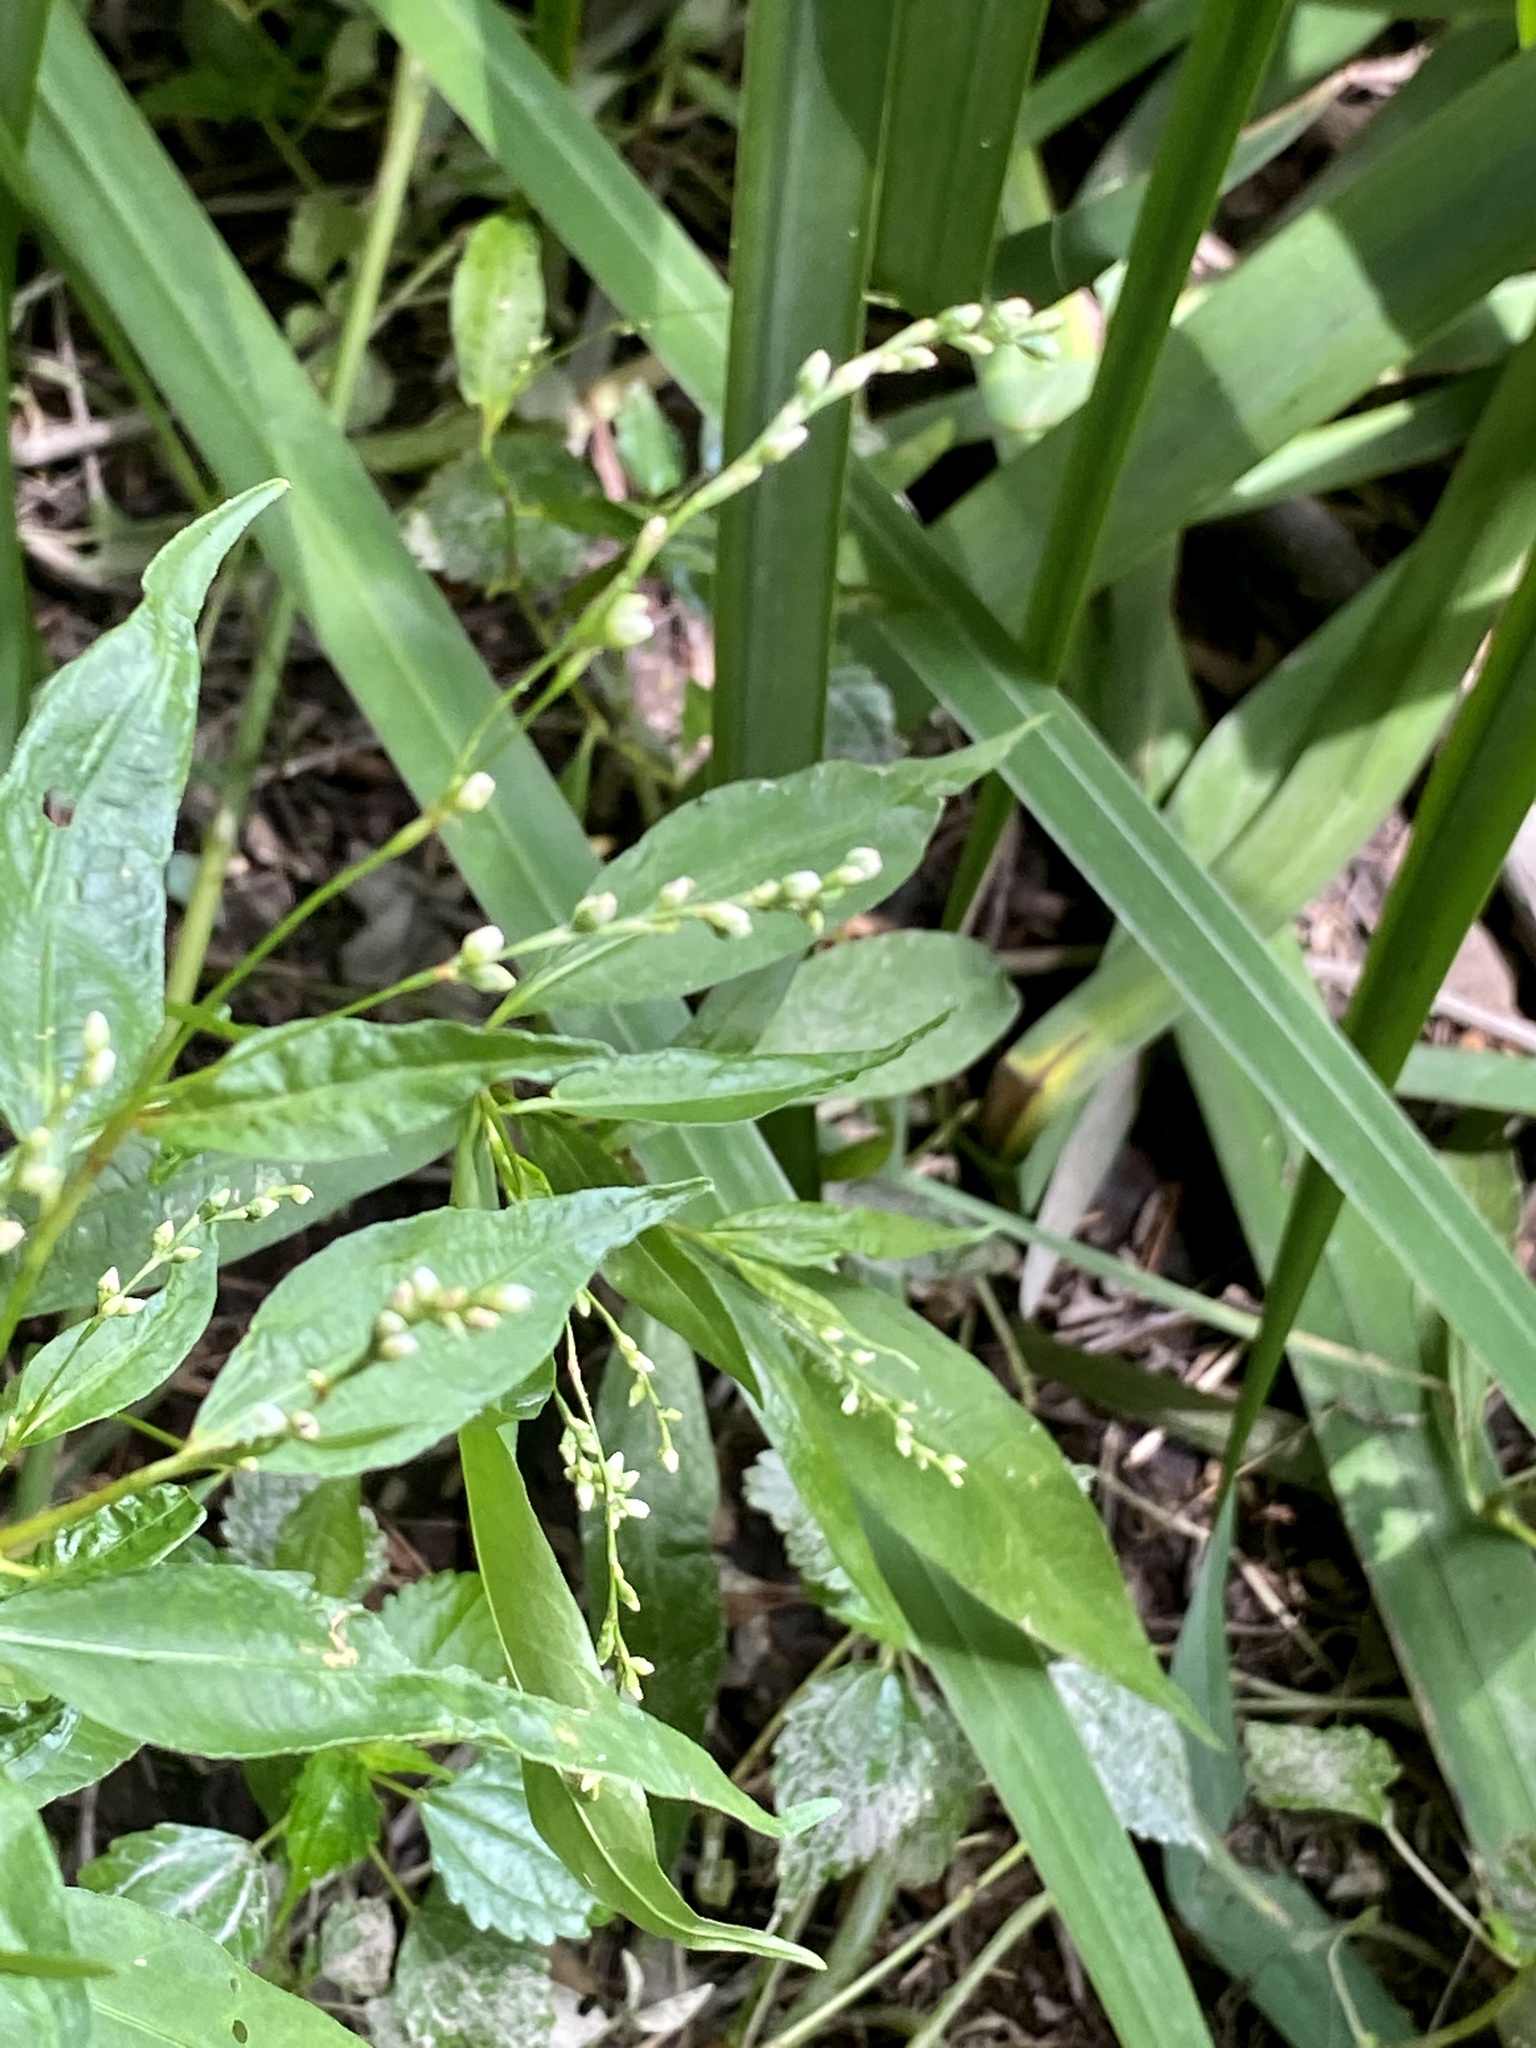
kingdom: Plantae
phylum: Tracheophyta
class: Magnoliopsida
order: Caryophyllales
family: Polygonaceae
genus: Persicaria
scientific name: Persicaria punctata
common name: Dotted smartweed
